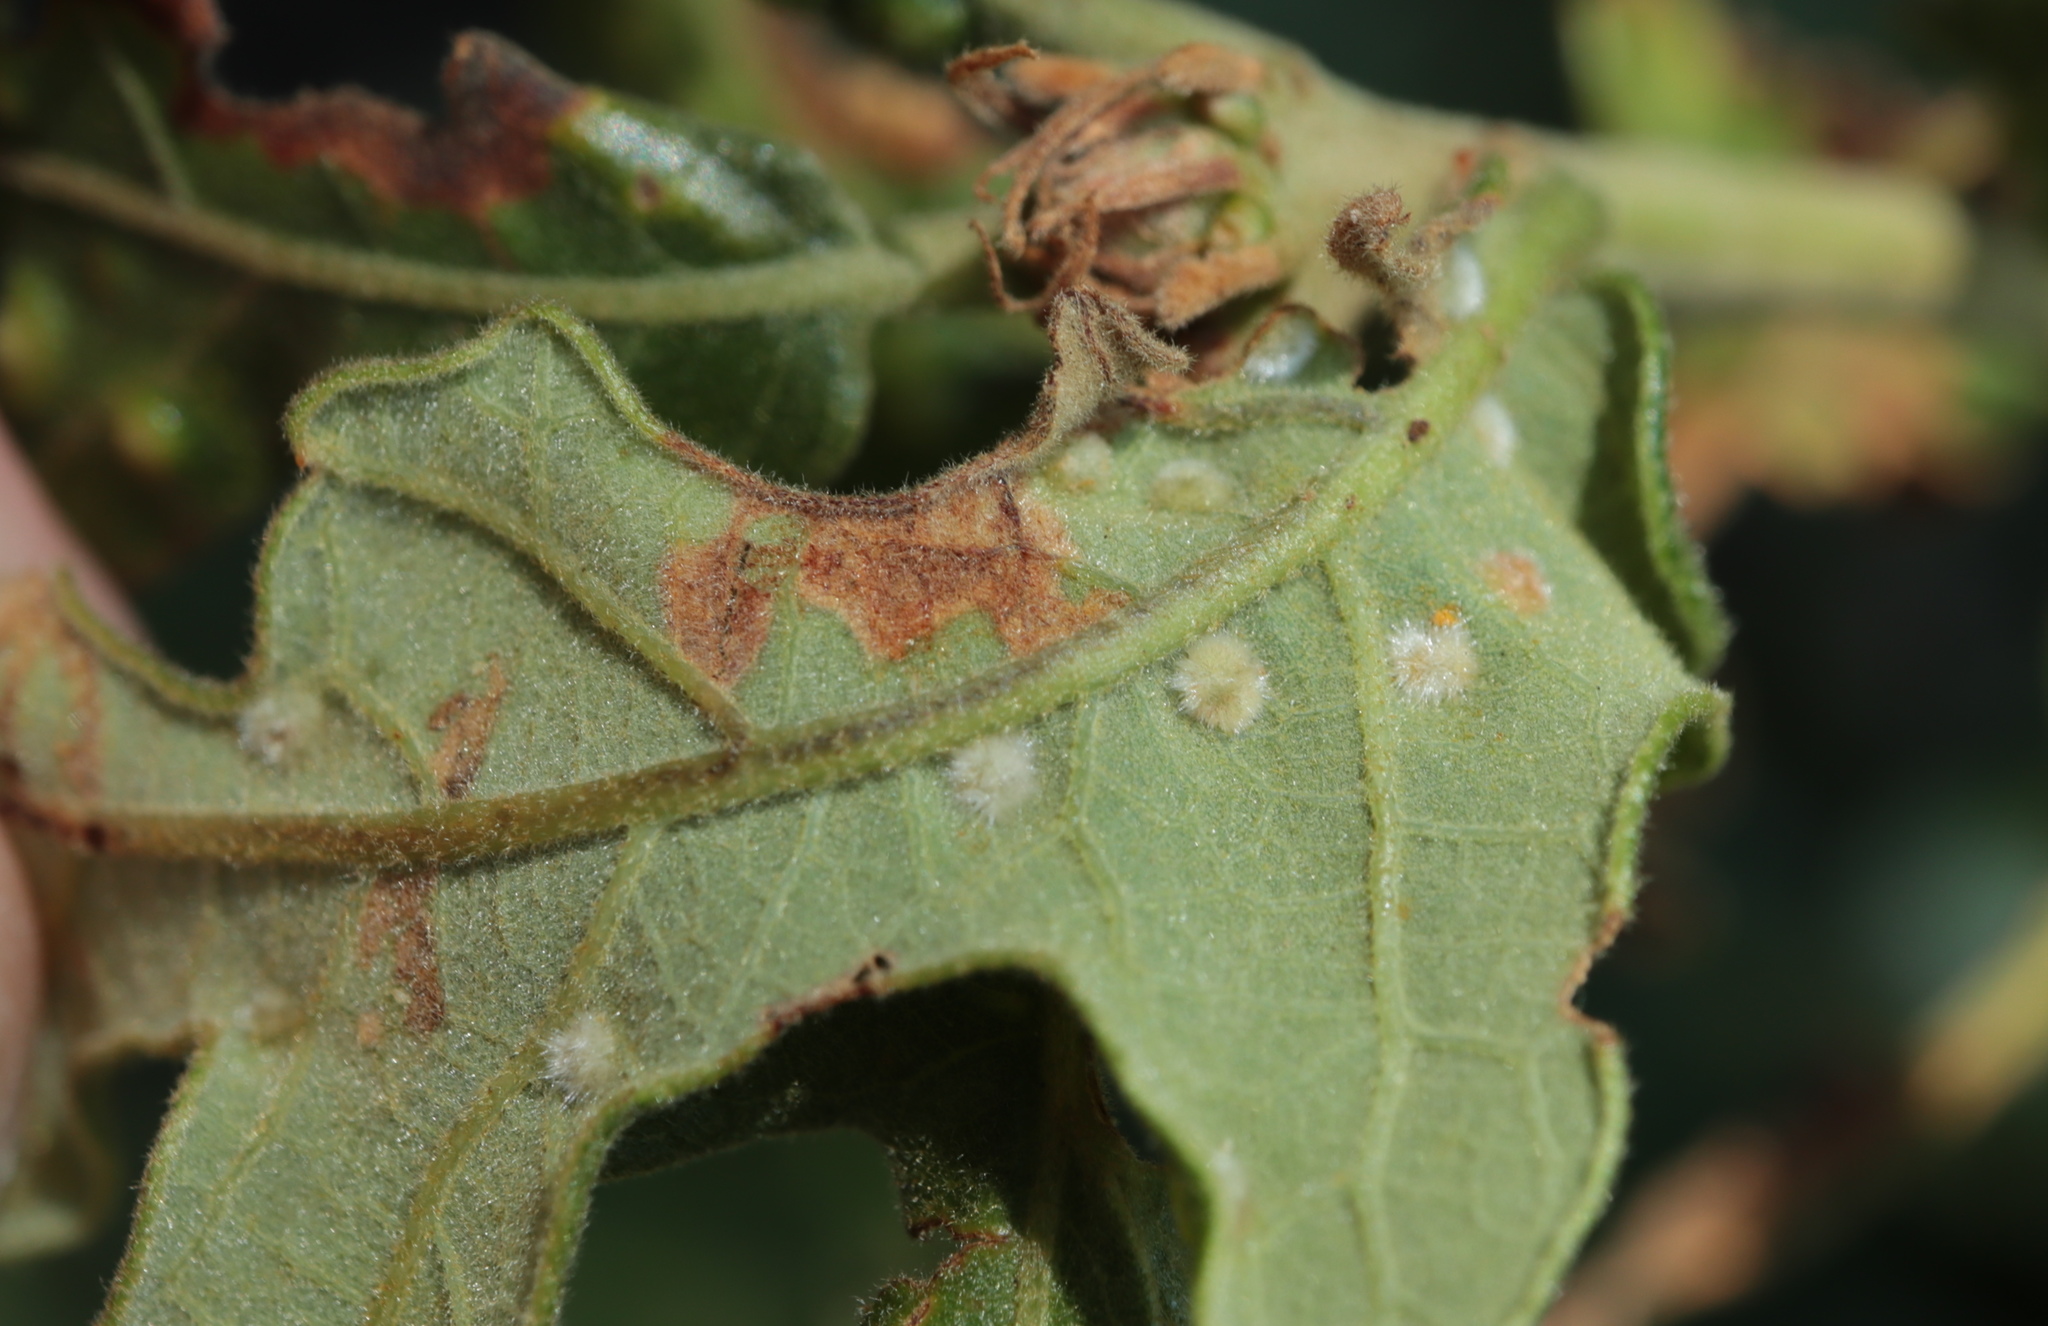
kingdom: Animalia
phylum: Arthropoda
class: Insecta
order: Hymenoptera
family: Cynipidae
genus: Neuroterus
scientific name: Neuroterus quercusverrucarum
